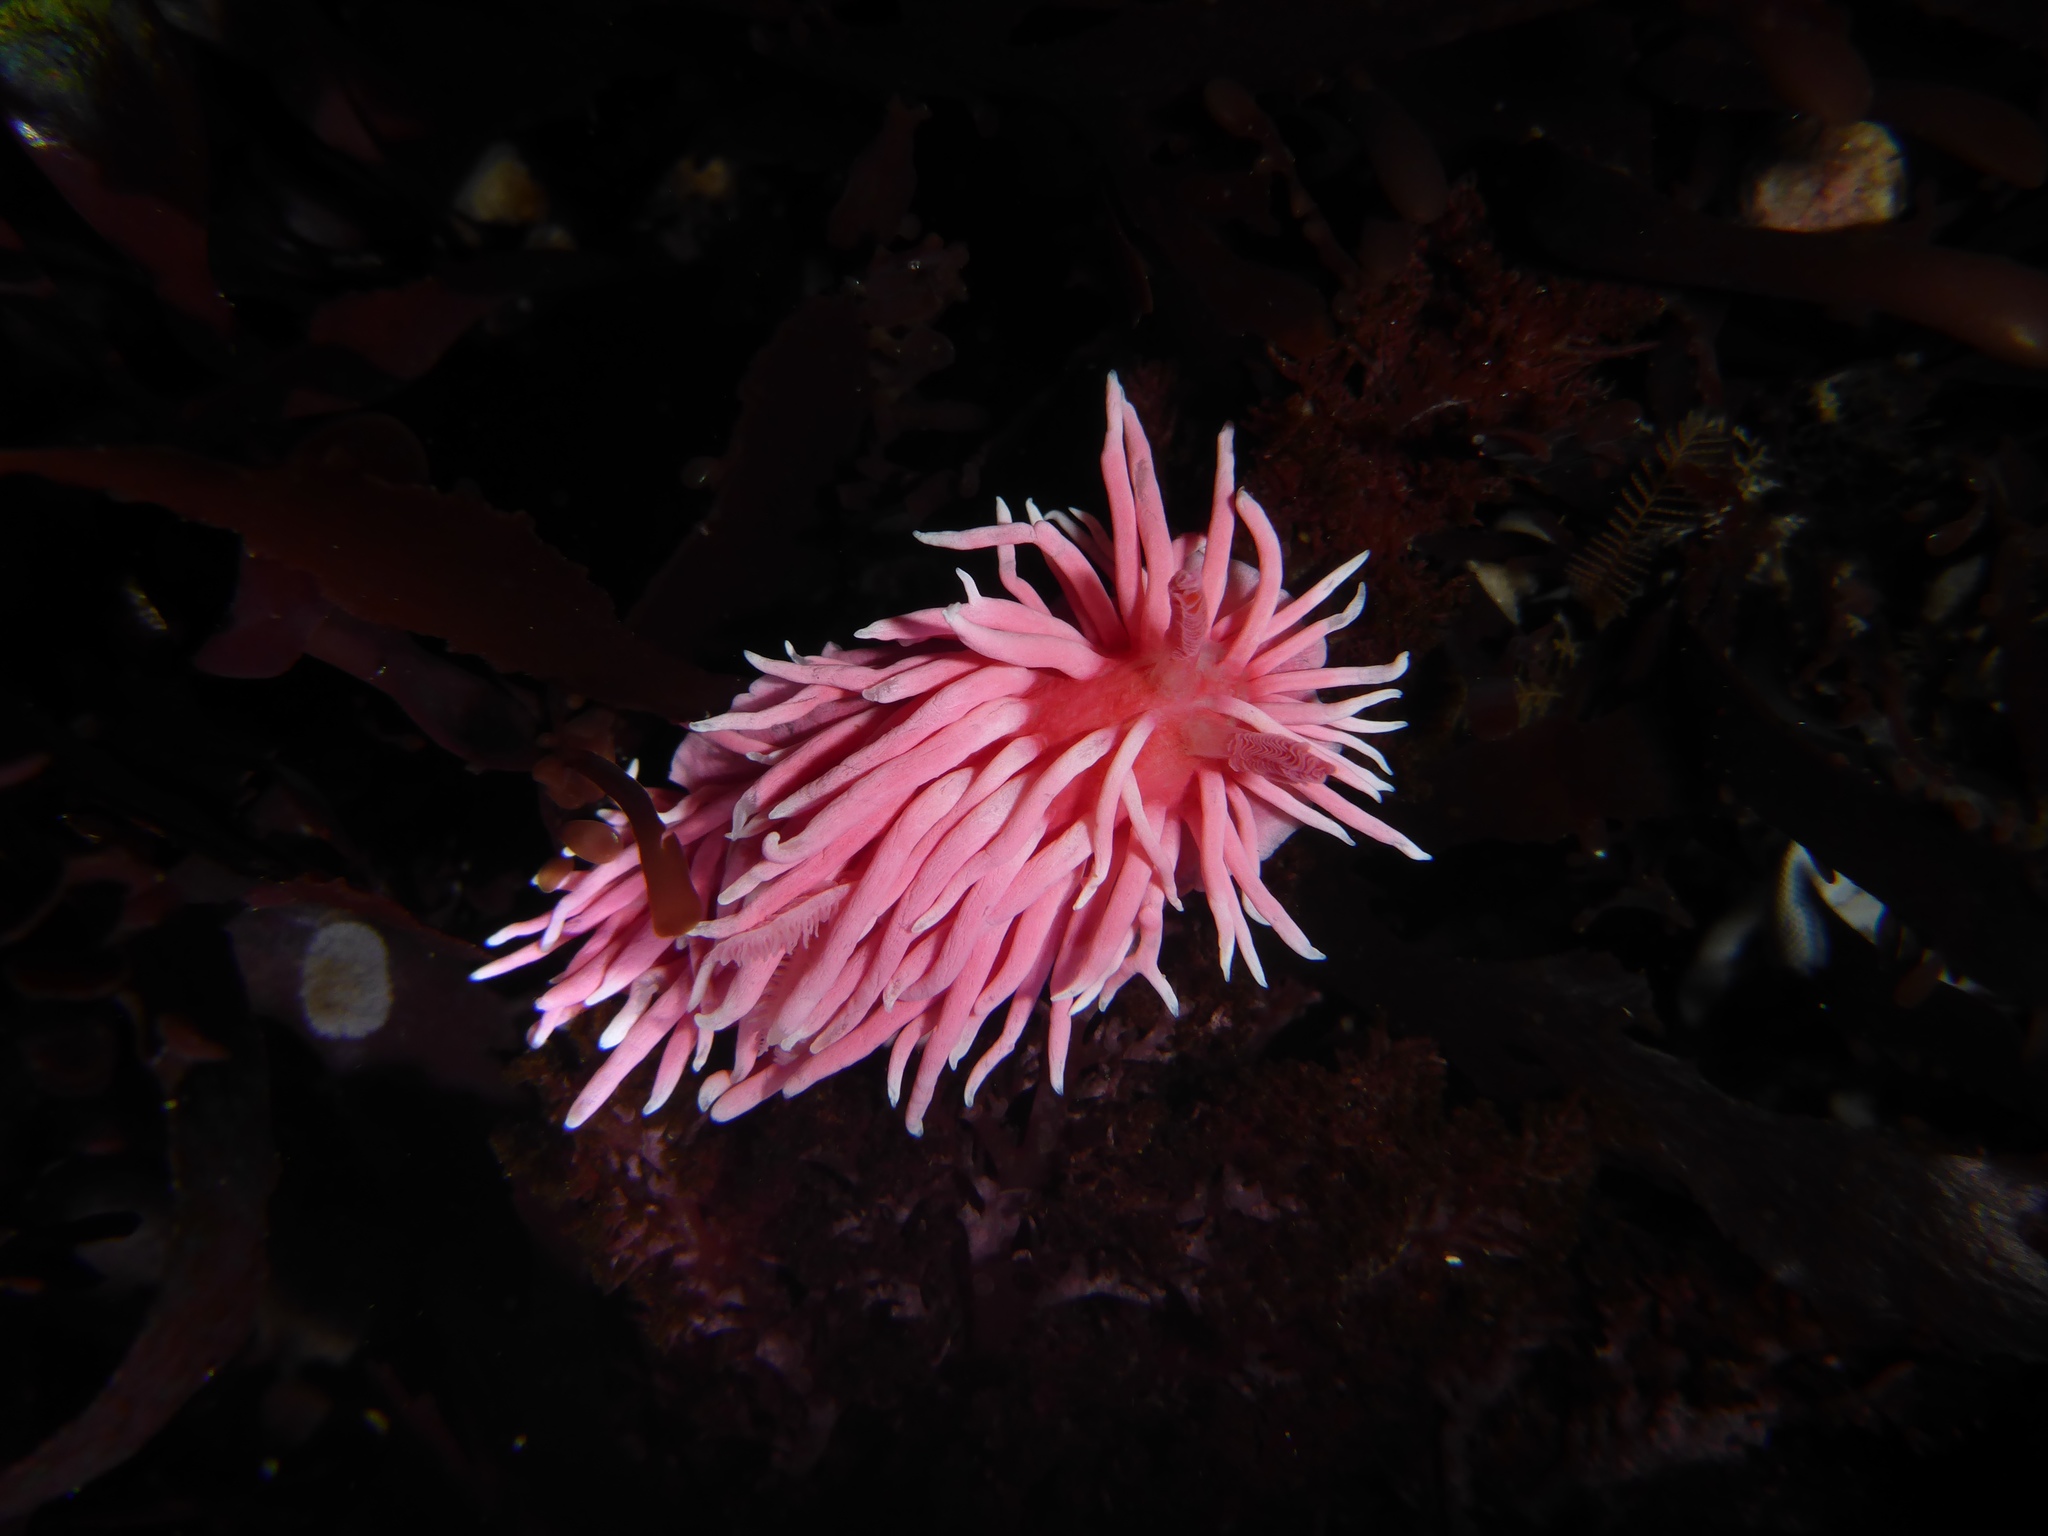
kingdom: Animalia
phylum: Mollusca
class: Gastropoda
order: Nudibranchia
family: Goniodorididae
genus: Okenia
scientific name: Okenia
